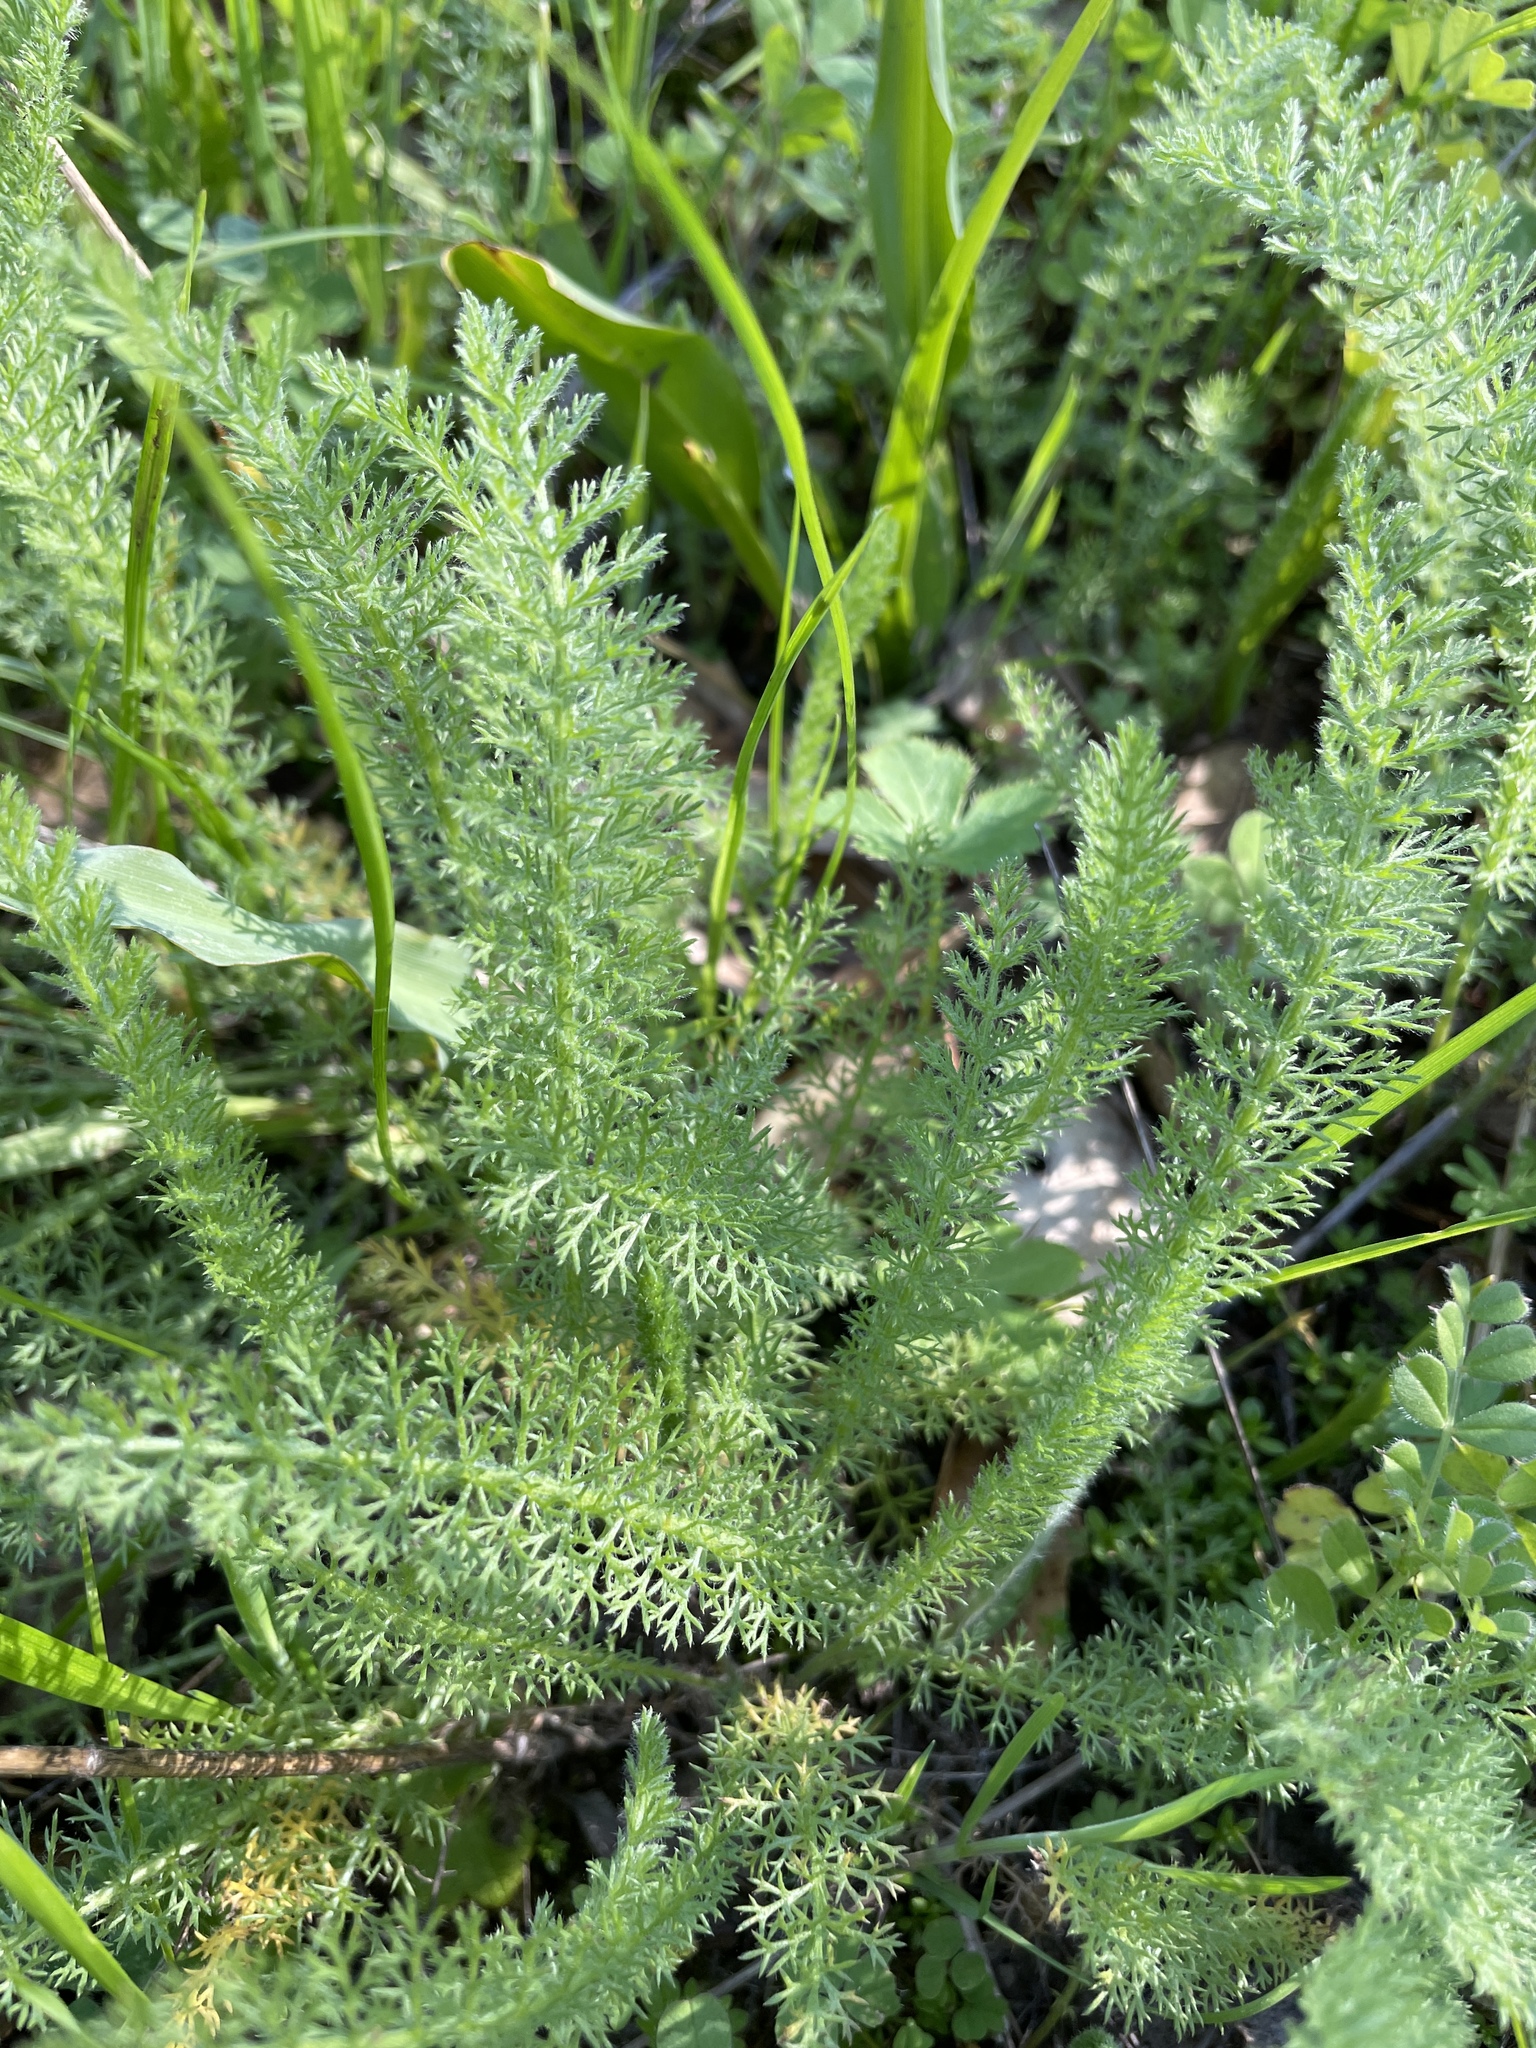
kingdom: Plantae
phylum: Tracheophyta
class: Magnoliopsida
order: Asterales
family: Asteraceae
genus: Achillea
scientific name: Achillea millefolium
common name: Yarrow
